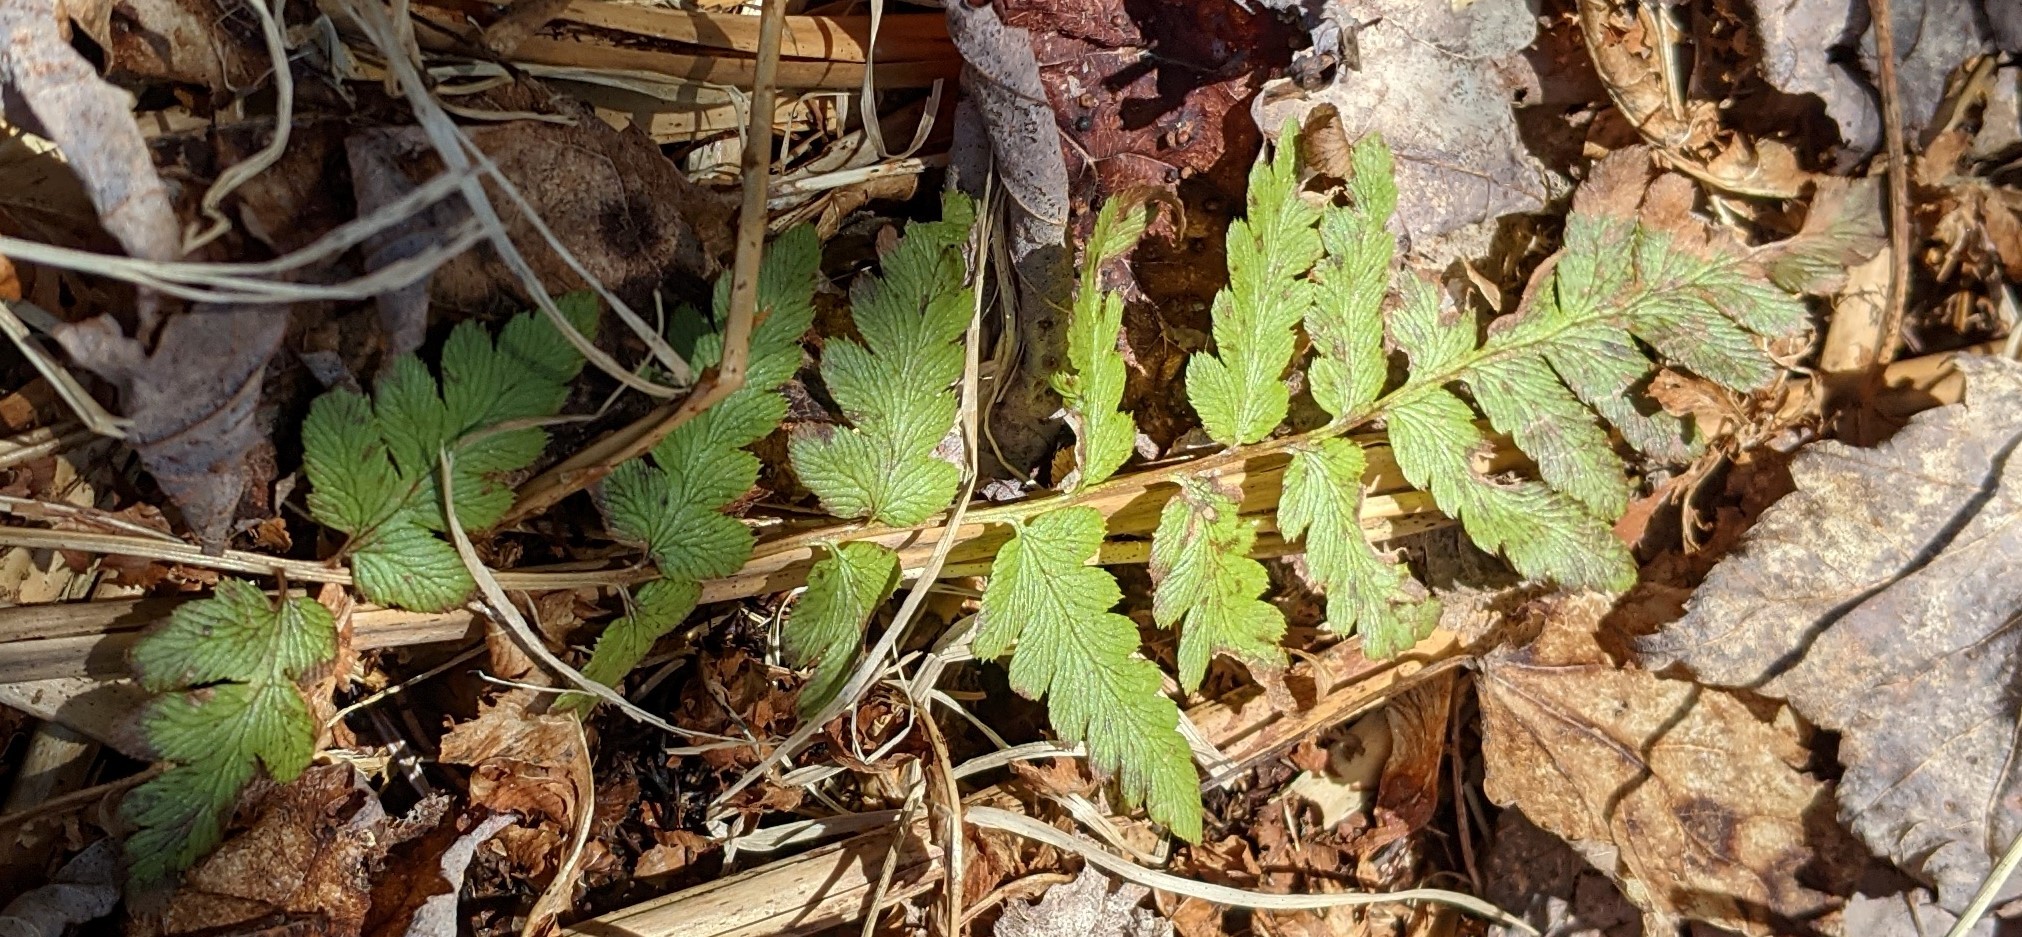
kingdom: Plantae
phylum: Tracheophyta
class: Polypodiopsida
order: Polypodiales
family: Dryopteridaceae
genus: Dryopteris
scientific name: Dryopteris cristata
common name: Crested wood fern
